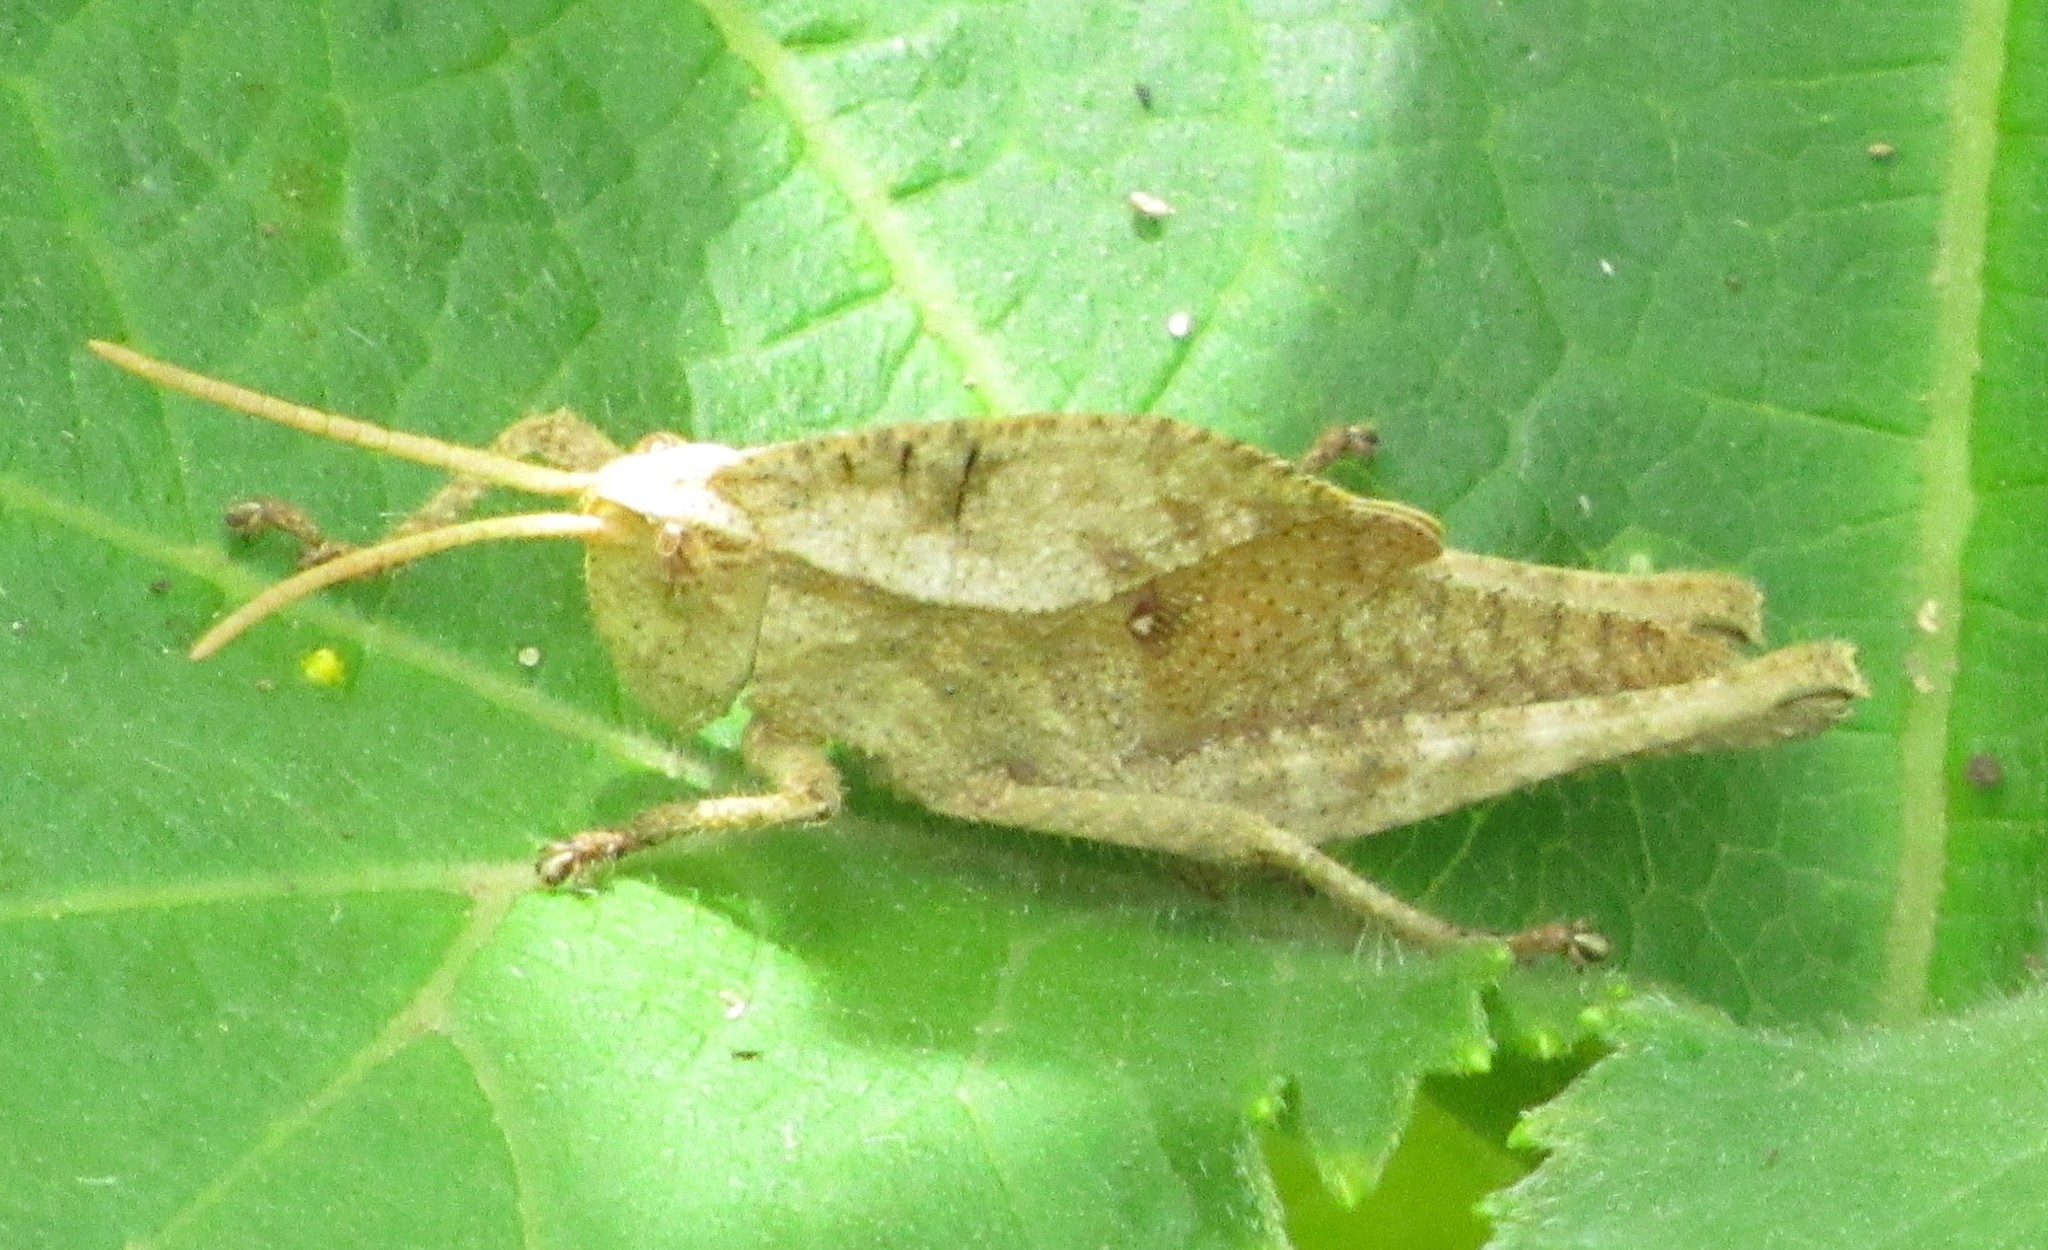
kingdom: Animalia
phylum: Arthropoda
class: Insecta
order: Orthoptera
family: Romaleidae
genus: Xyleus
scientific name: Xyleus discoideus
